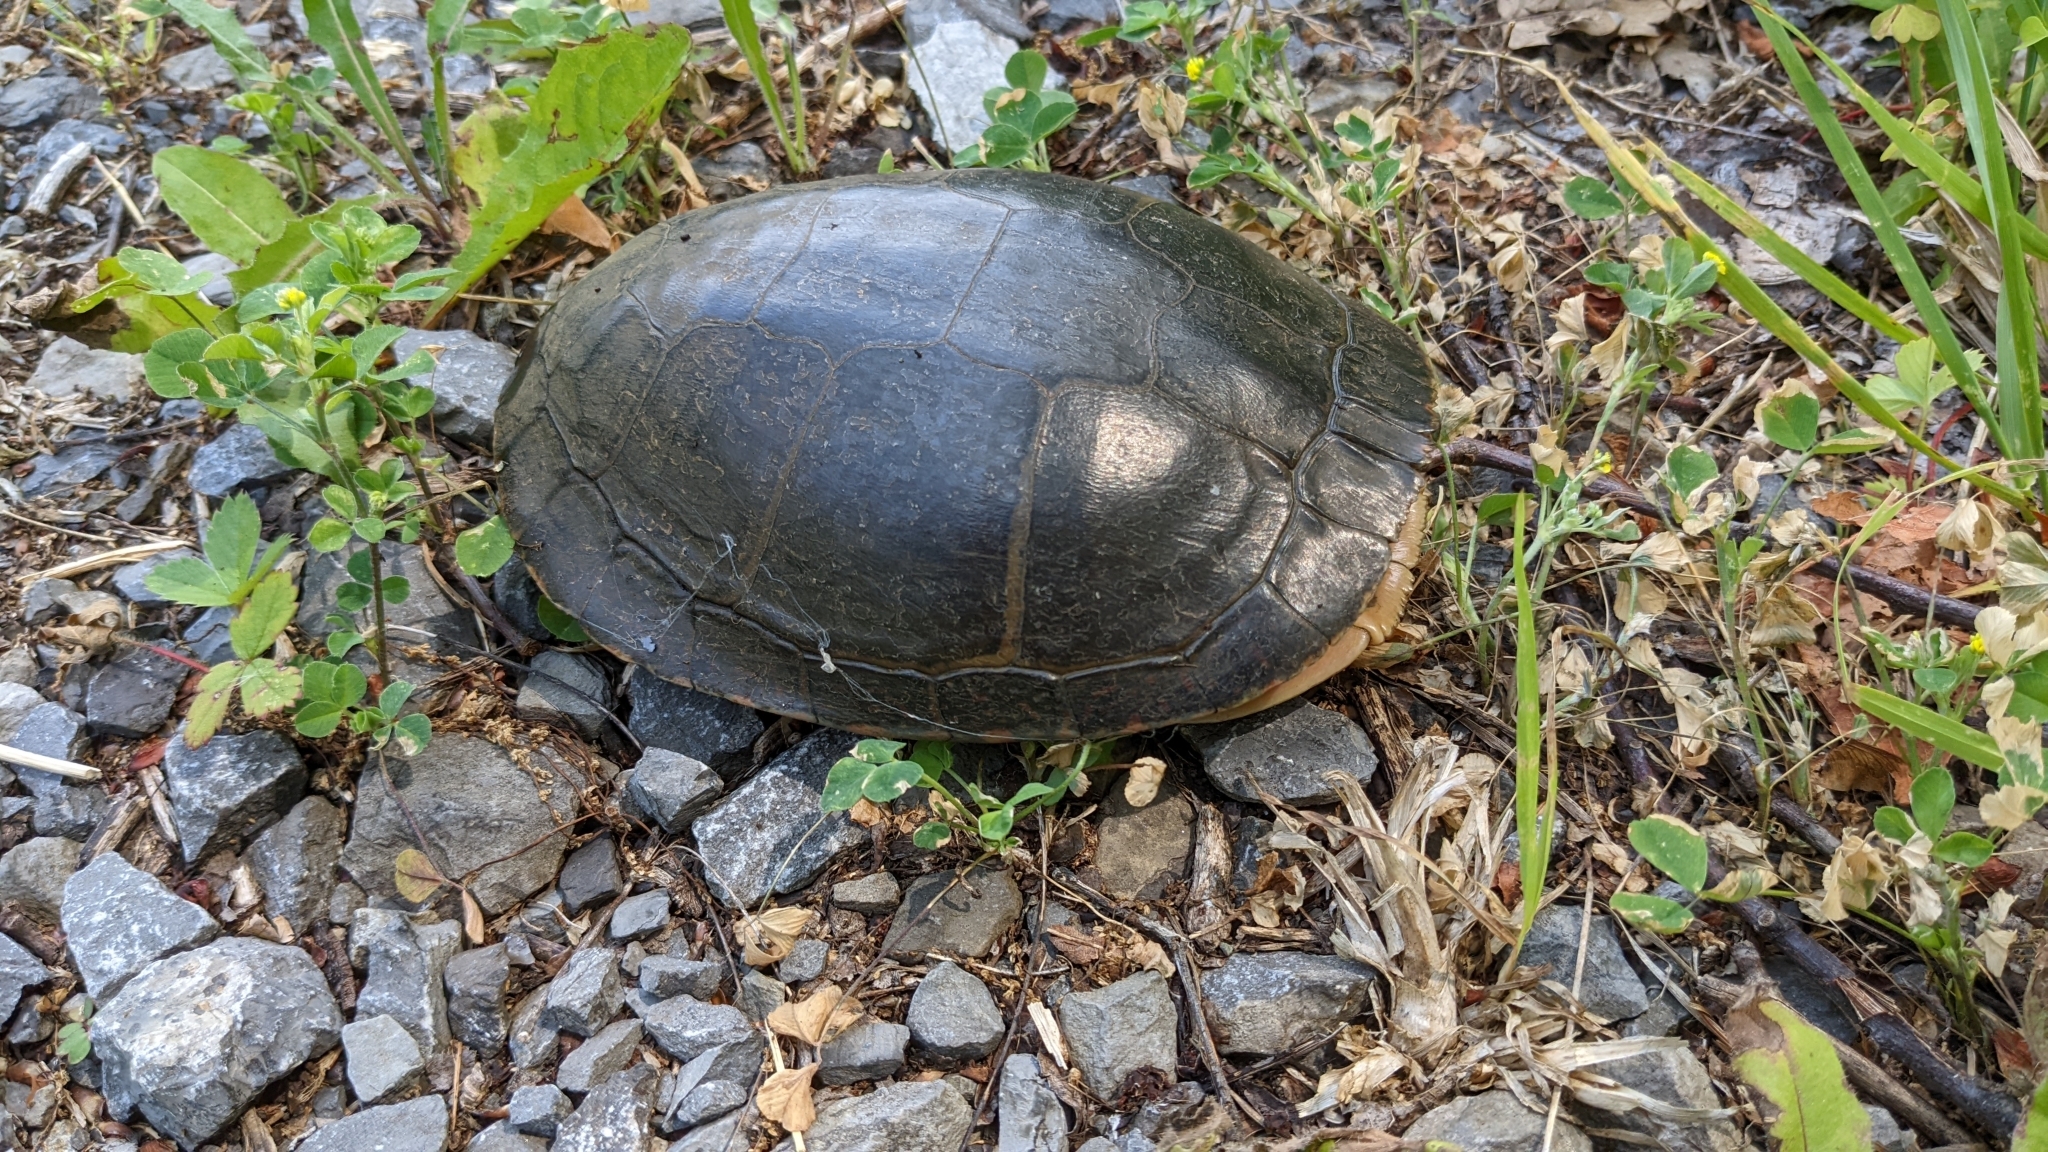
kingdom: Animalia
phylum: Chordata
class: Testudines
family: Emydidae
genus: Chrysemys
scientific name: Chrysemys picta
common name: Painted turtle
